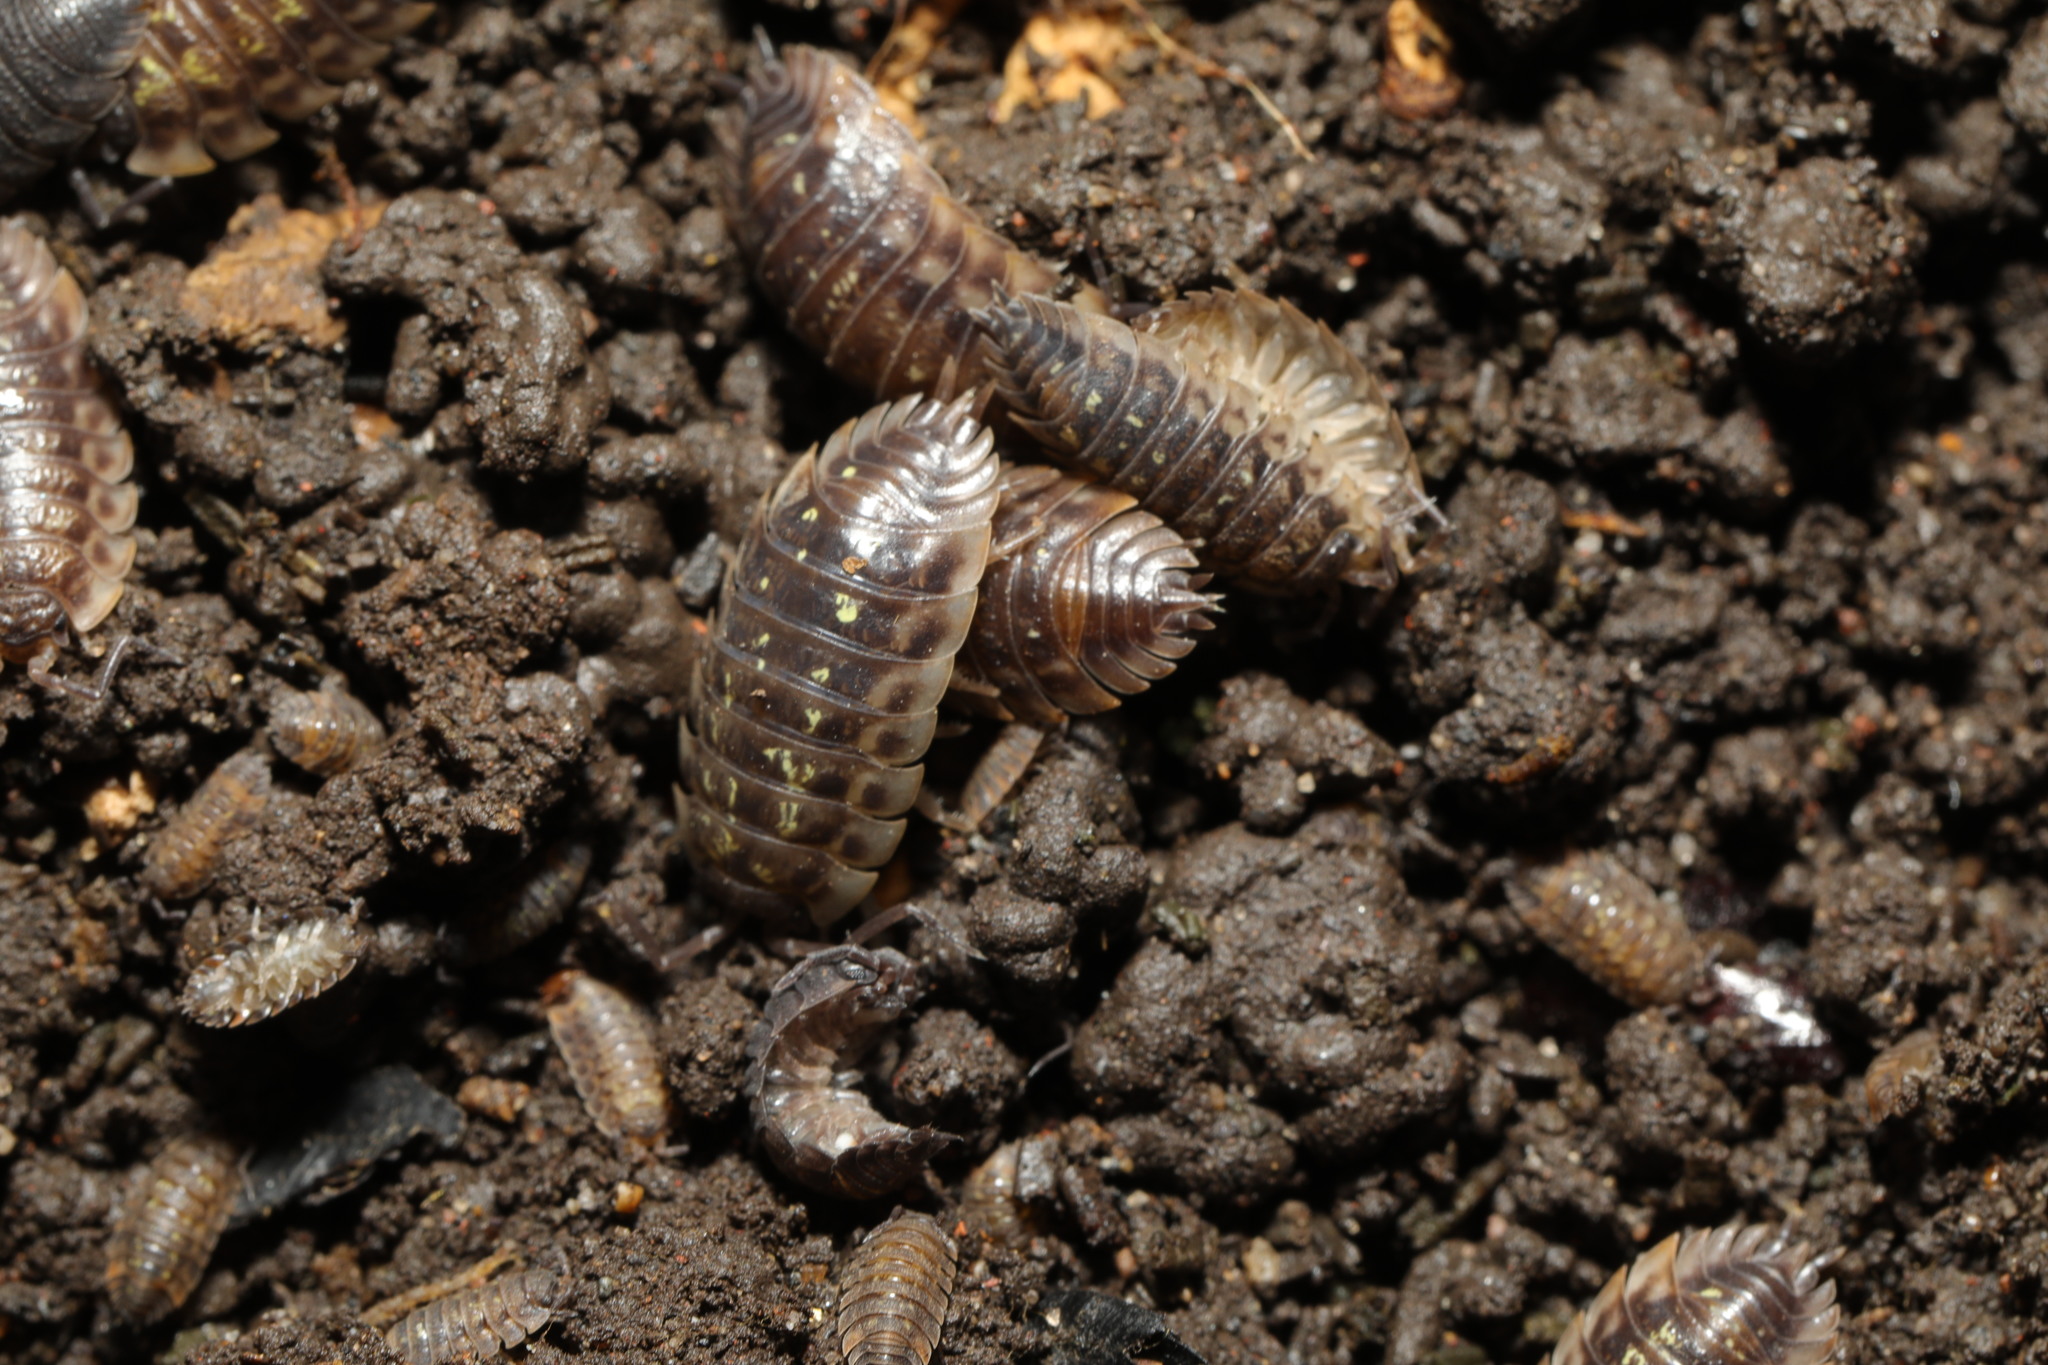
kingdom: Animalia
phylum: Arthropoda
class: Malacostraca
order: Isopoda
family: Oniscidae
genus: Oniscus
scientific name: Oniscus asellus
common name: Common shiny woodlouse
